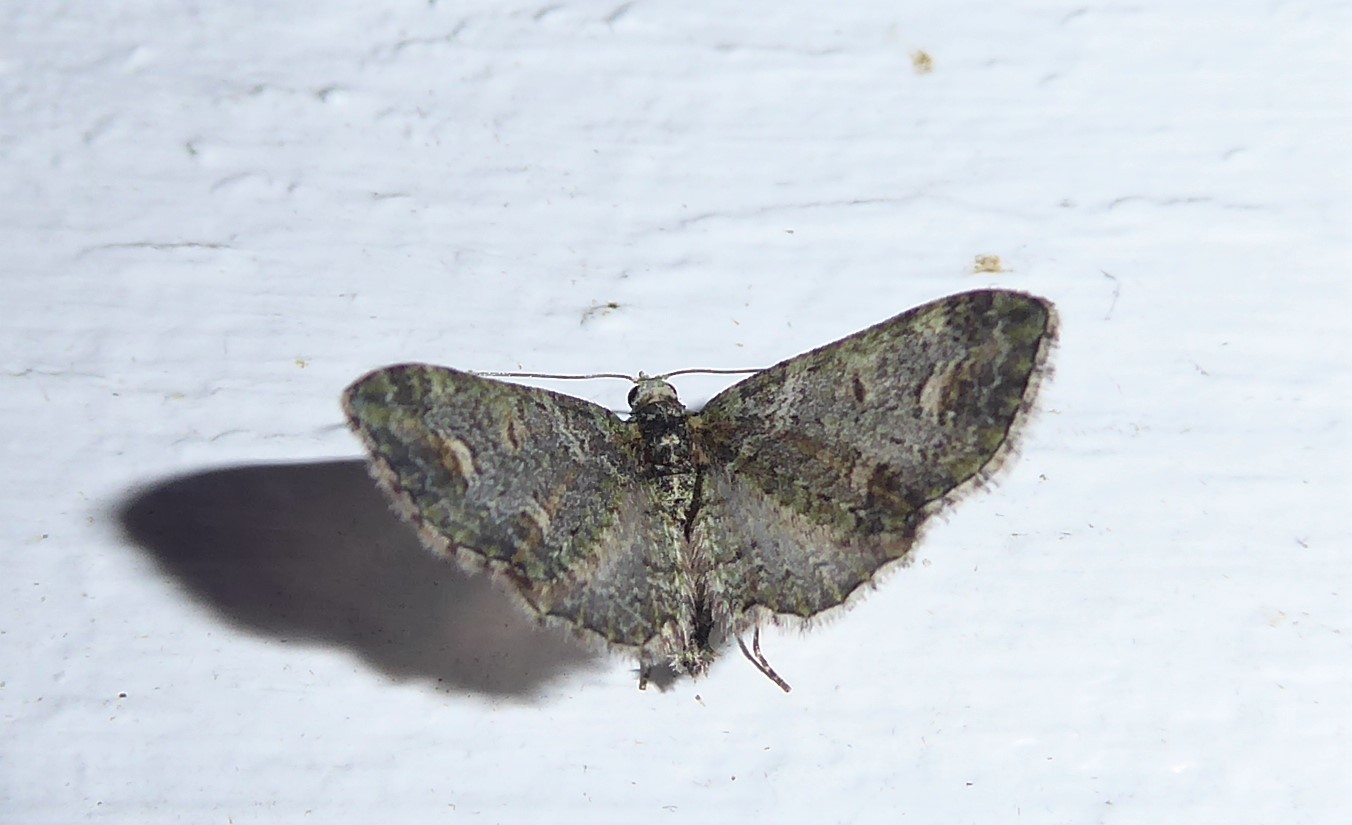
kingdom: Animalia
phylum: Arthropoda
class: Insecta
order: Lepidoptera
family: Geometridae
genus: Idaea
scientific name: Idaea mutanda
